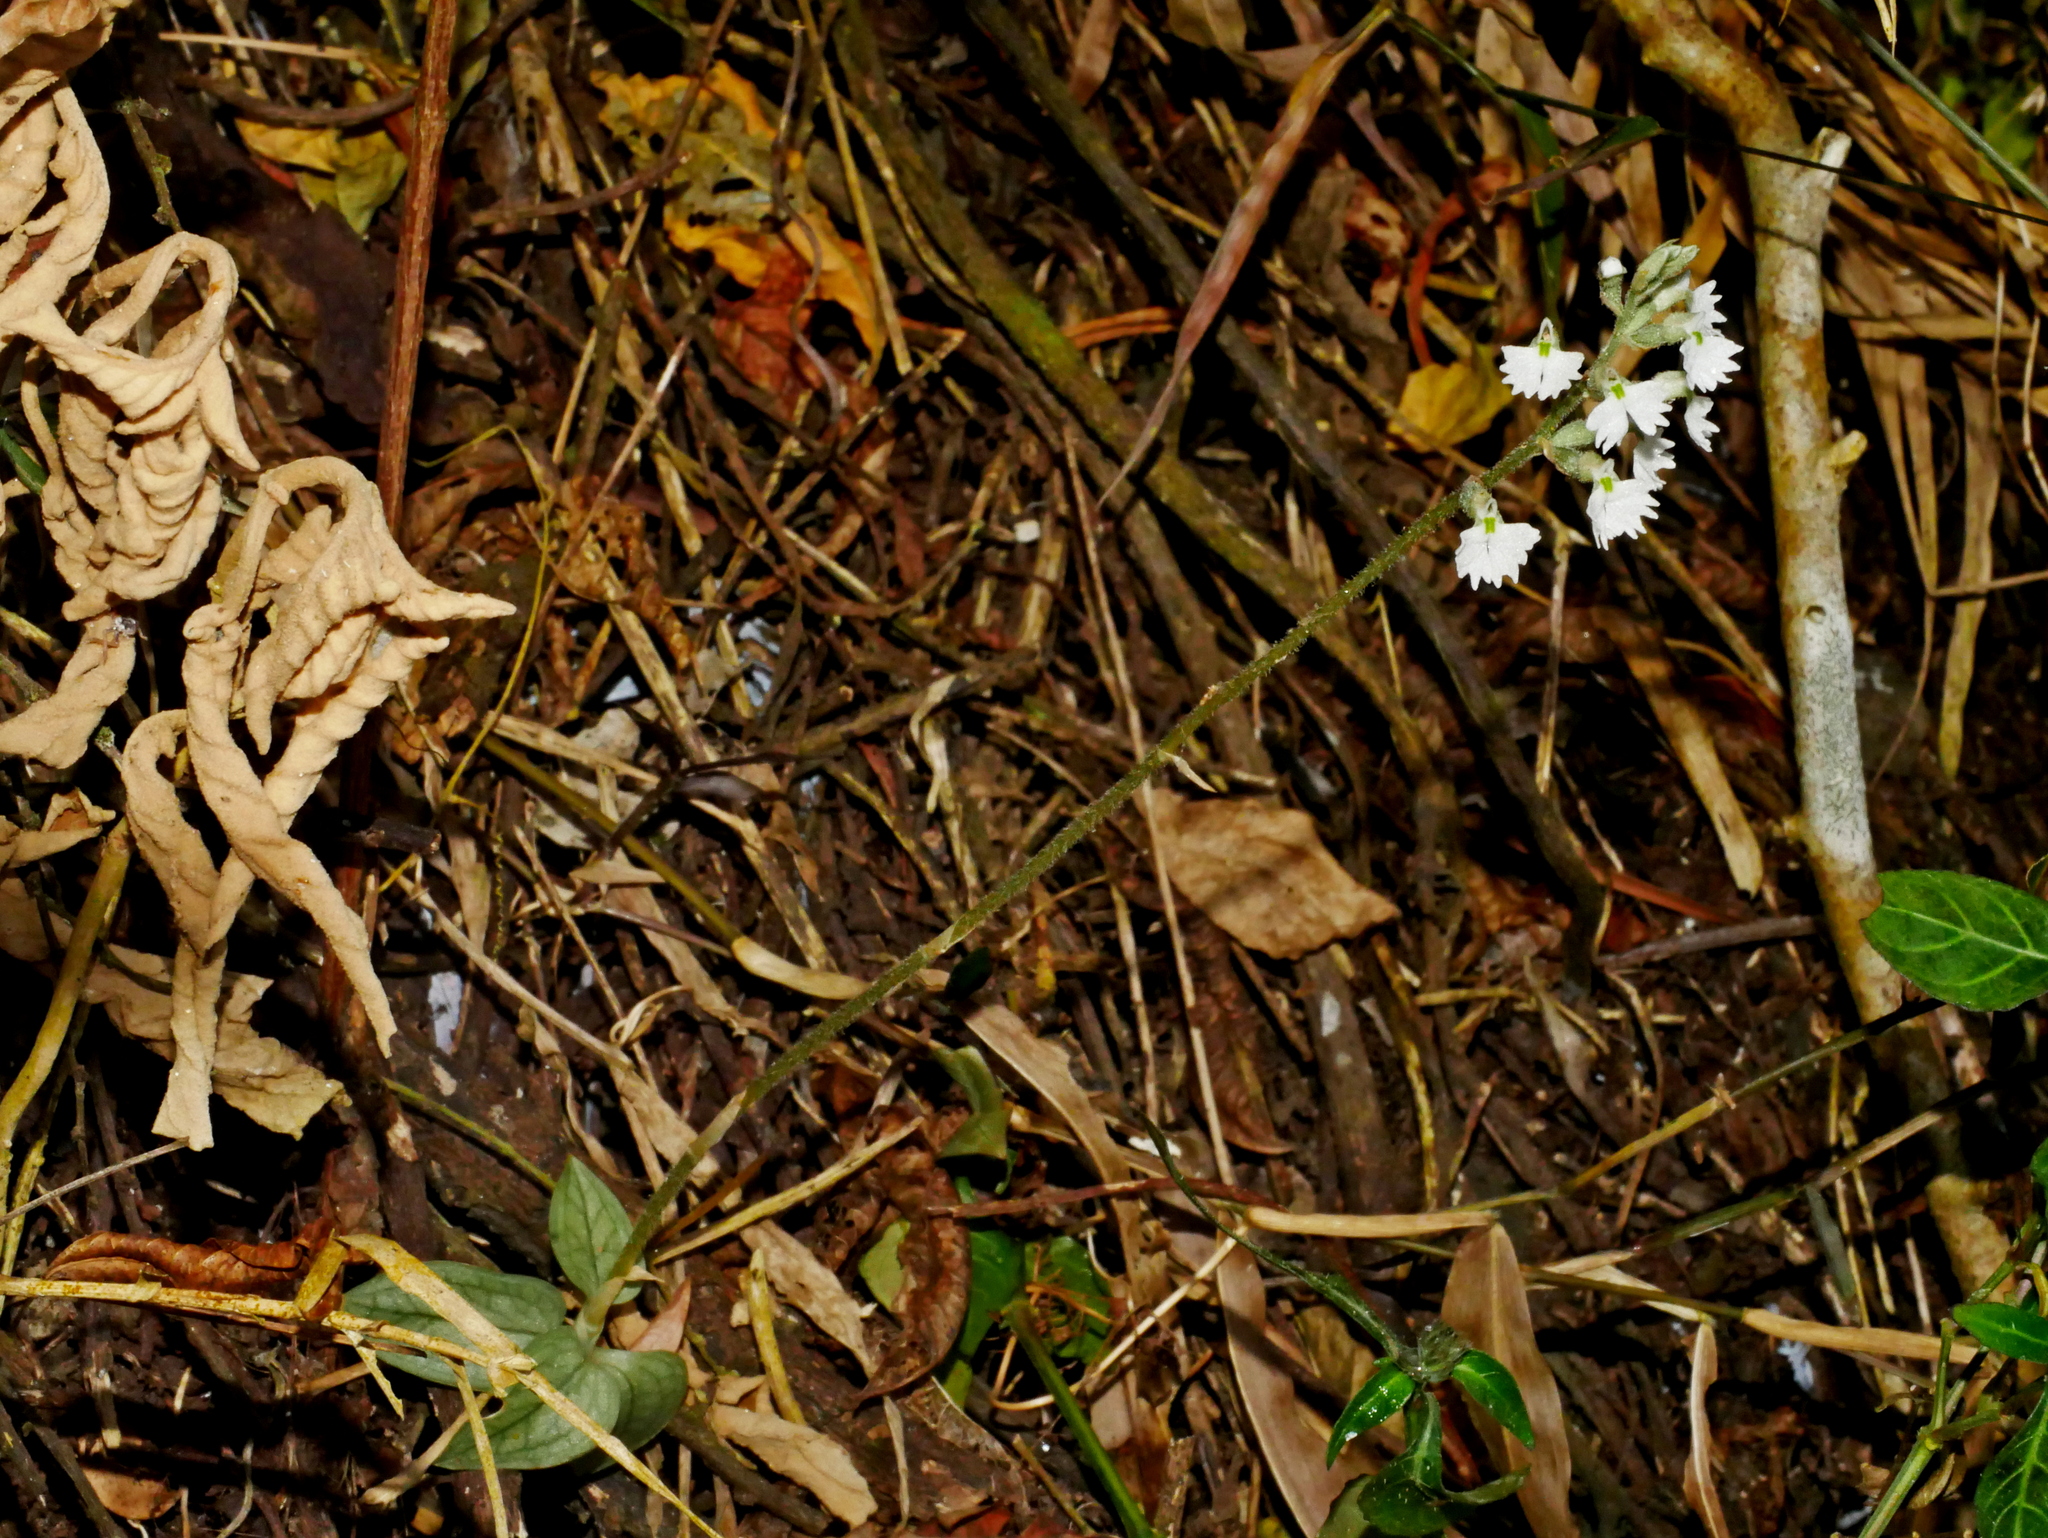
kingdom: Plantae
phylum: Tracheophyta
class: Liliopsida
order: Asparagales
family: Orchidaceae
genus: Cheirostylis
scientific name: Cheirostylis chinensis
